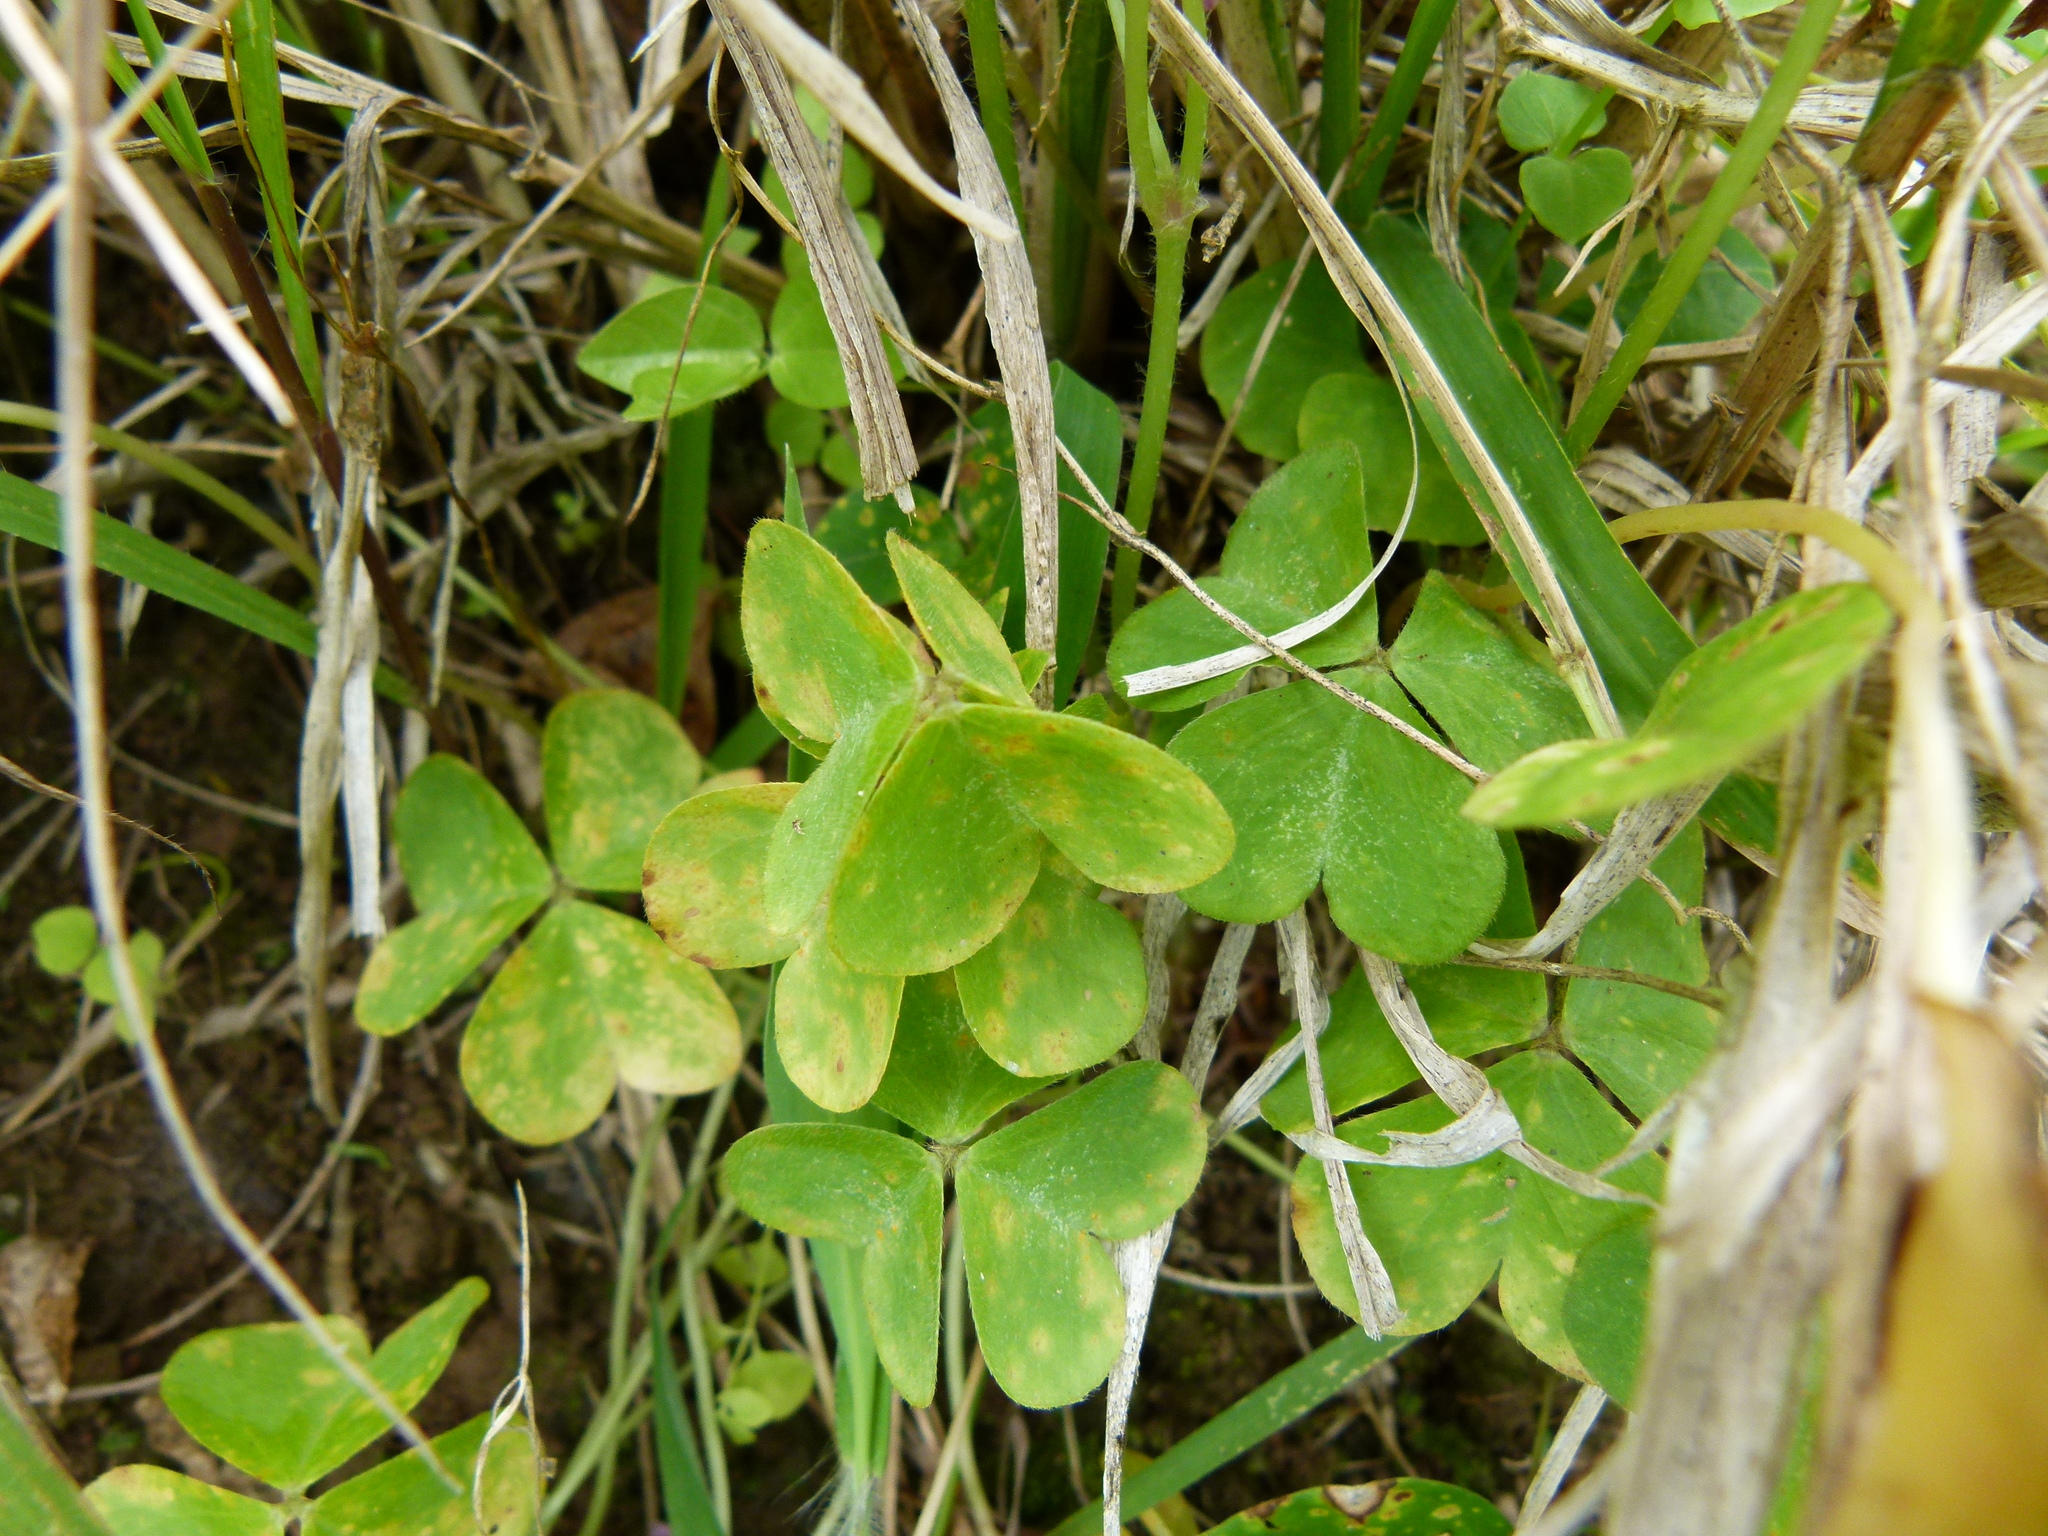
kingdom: Plantae
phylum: Tracheophyta
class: Magnoliopsida
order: Oxalidales
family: Oxalidaceae
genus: Oxalis
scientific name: Oxalis debilis
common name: Large-flowered pink-sorrel
